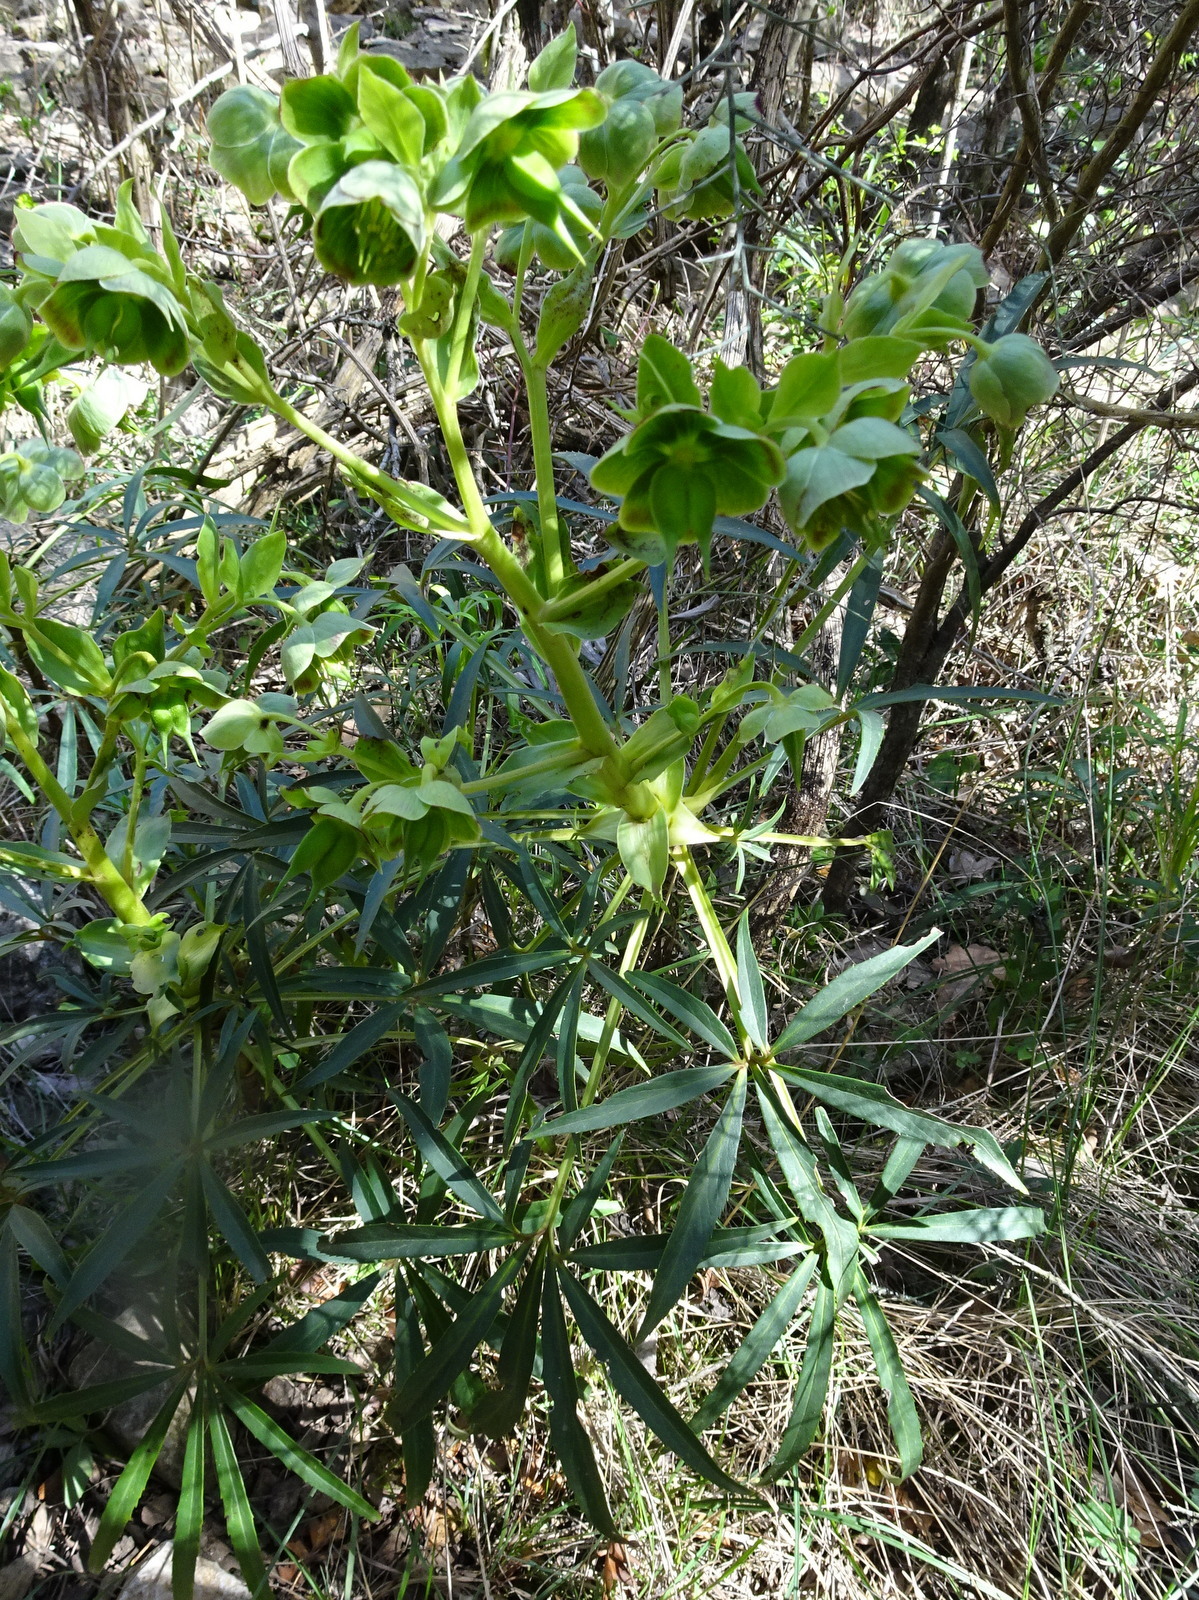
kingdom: Plantae
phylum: Tracheophyta
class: Magnoliopsida
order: Ranunculales
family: Ranunculaceae
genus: Helleborus
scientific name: Helleborus foetidus
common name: Stinking hellebore
